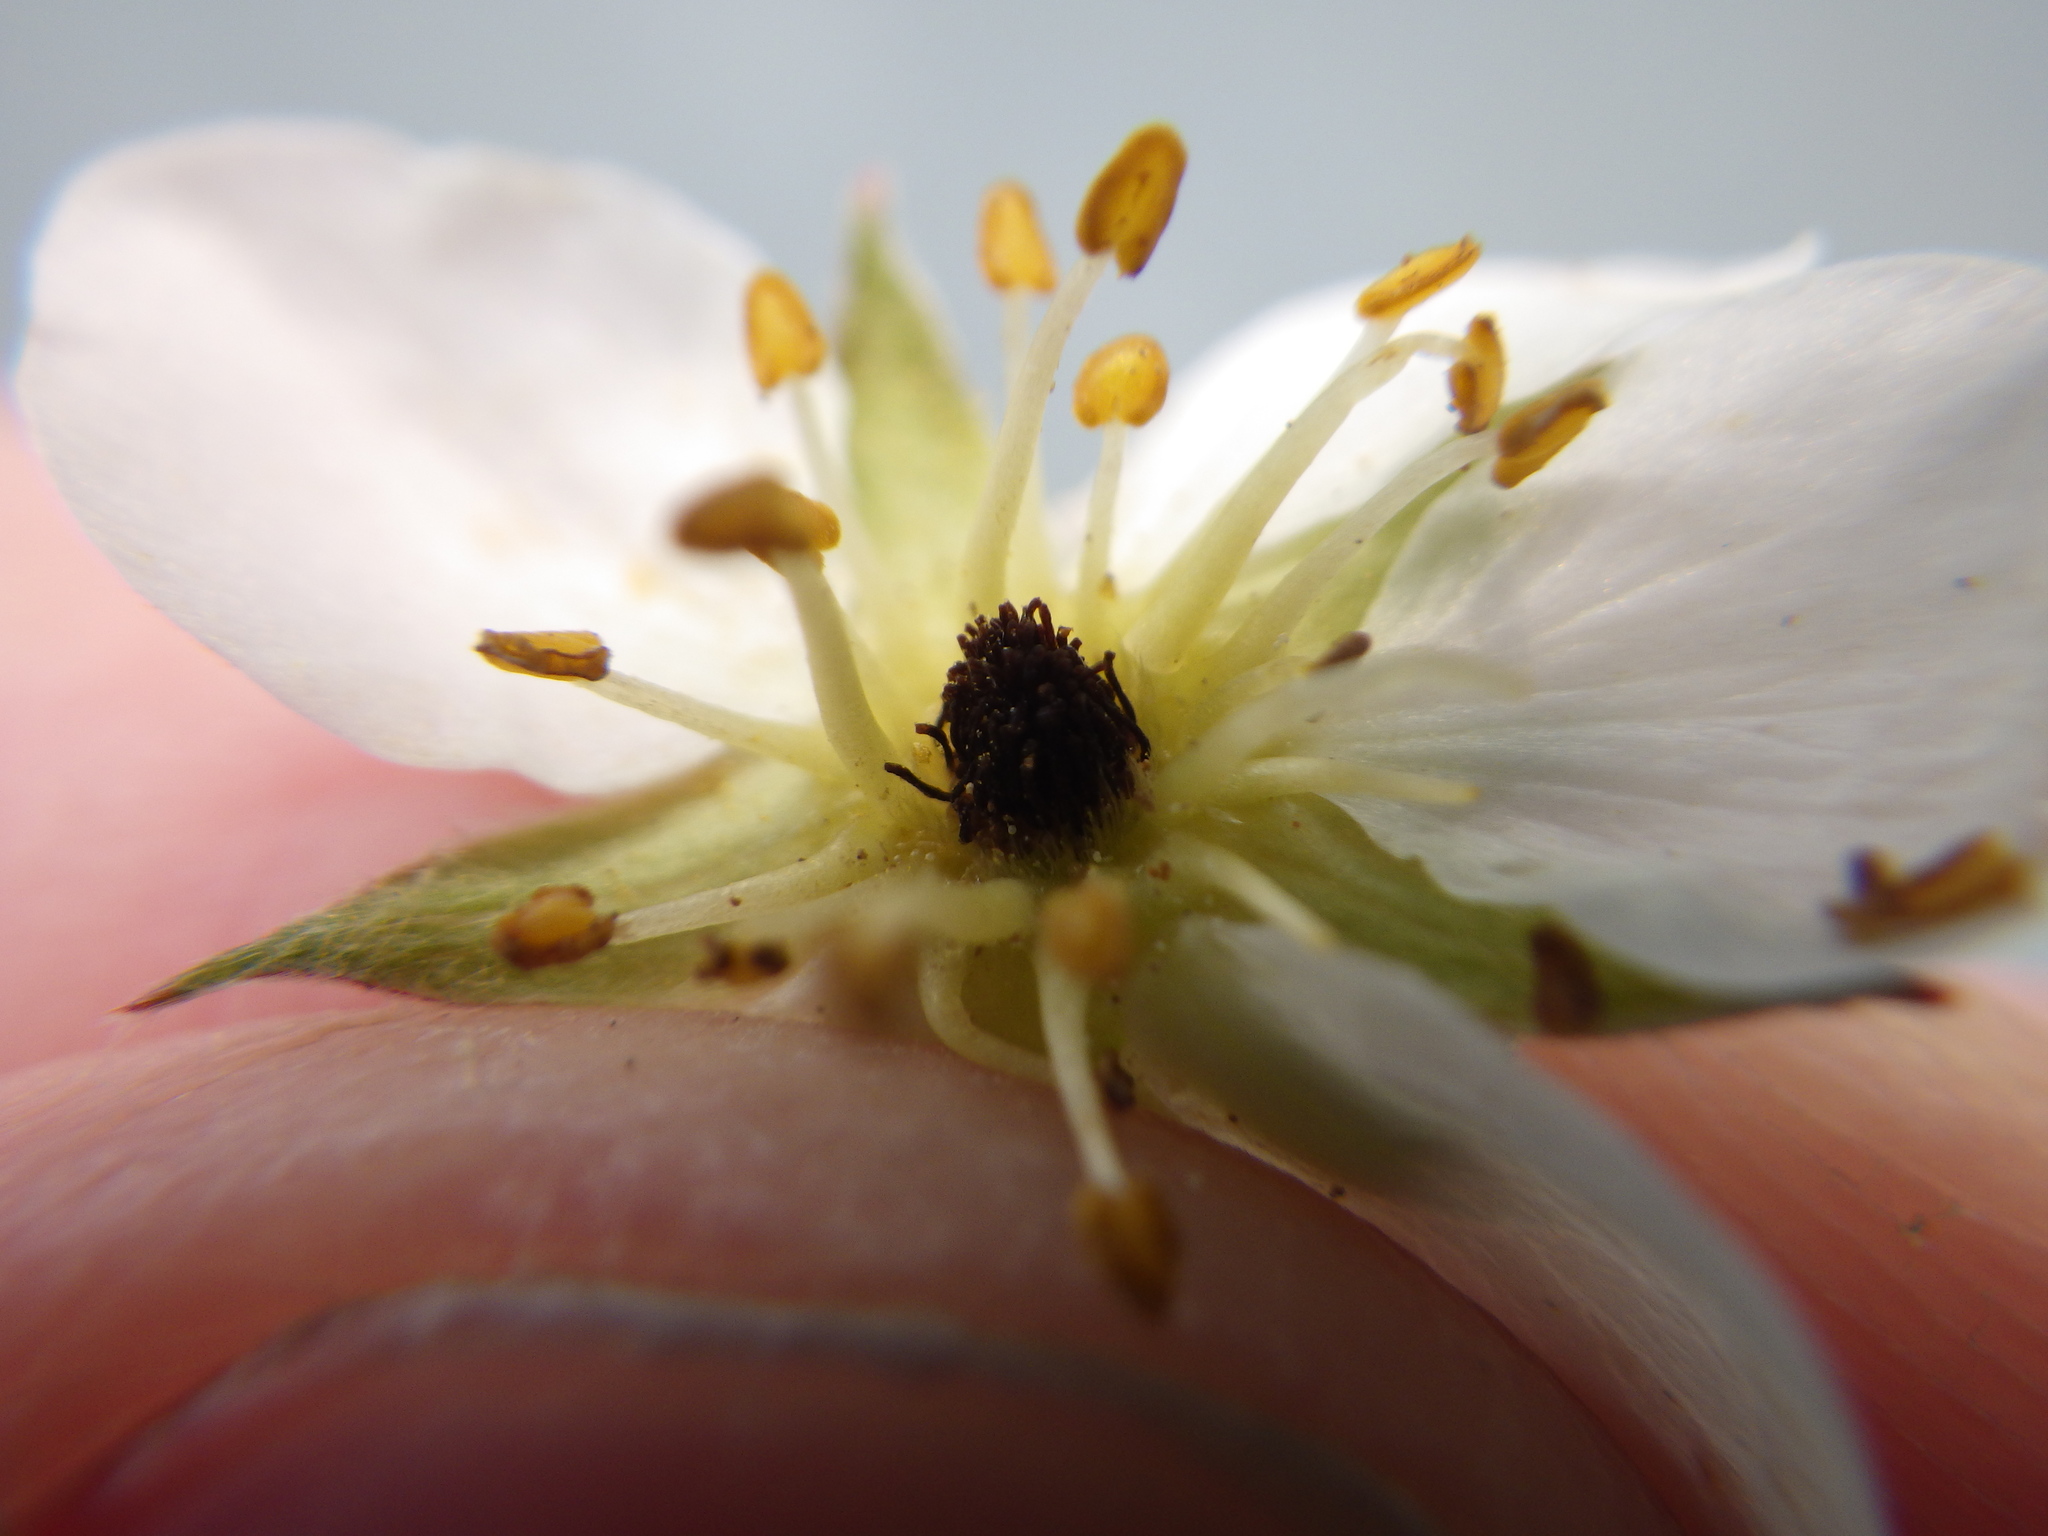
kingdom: Plantae
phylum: Tracheophyta
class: Magnoliopsida
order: Rosales
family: Rosaceae
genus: Fragaria
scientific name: Fragaria virginiana
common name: Thickleaved wild strawberry
